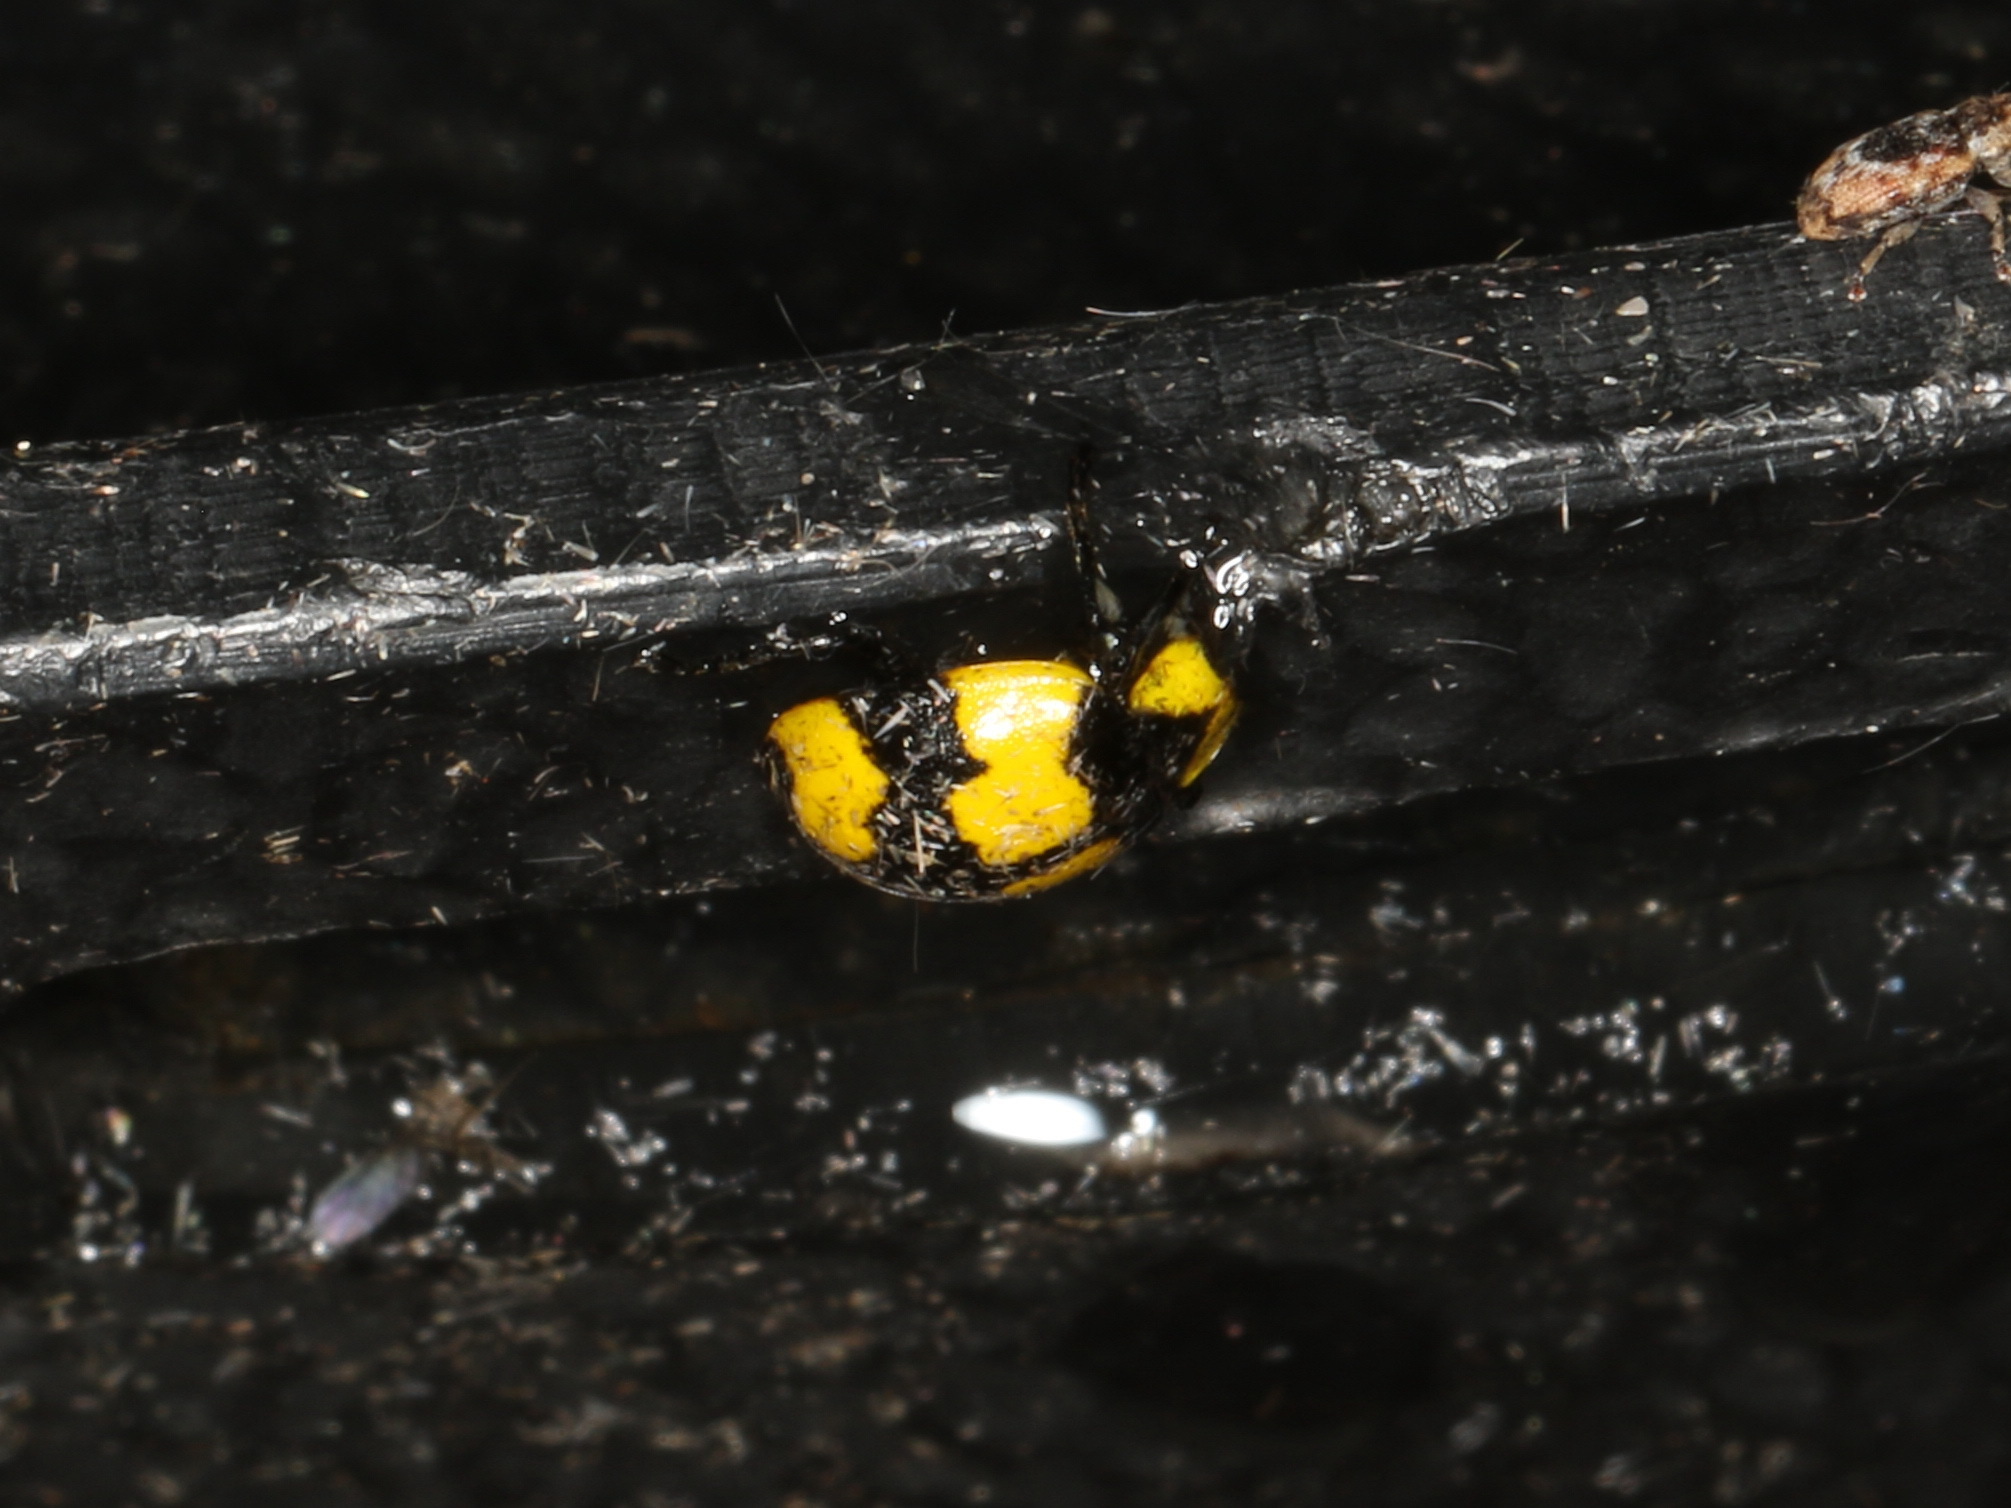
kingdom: Animalia
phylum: Arthropoda
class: Insecta
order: Coleoptera
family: Coccinellidae
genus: Illeis
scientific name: Illeis galbula
